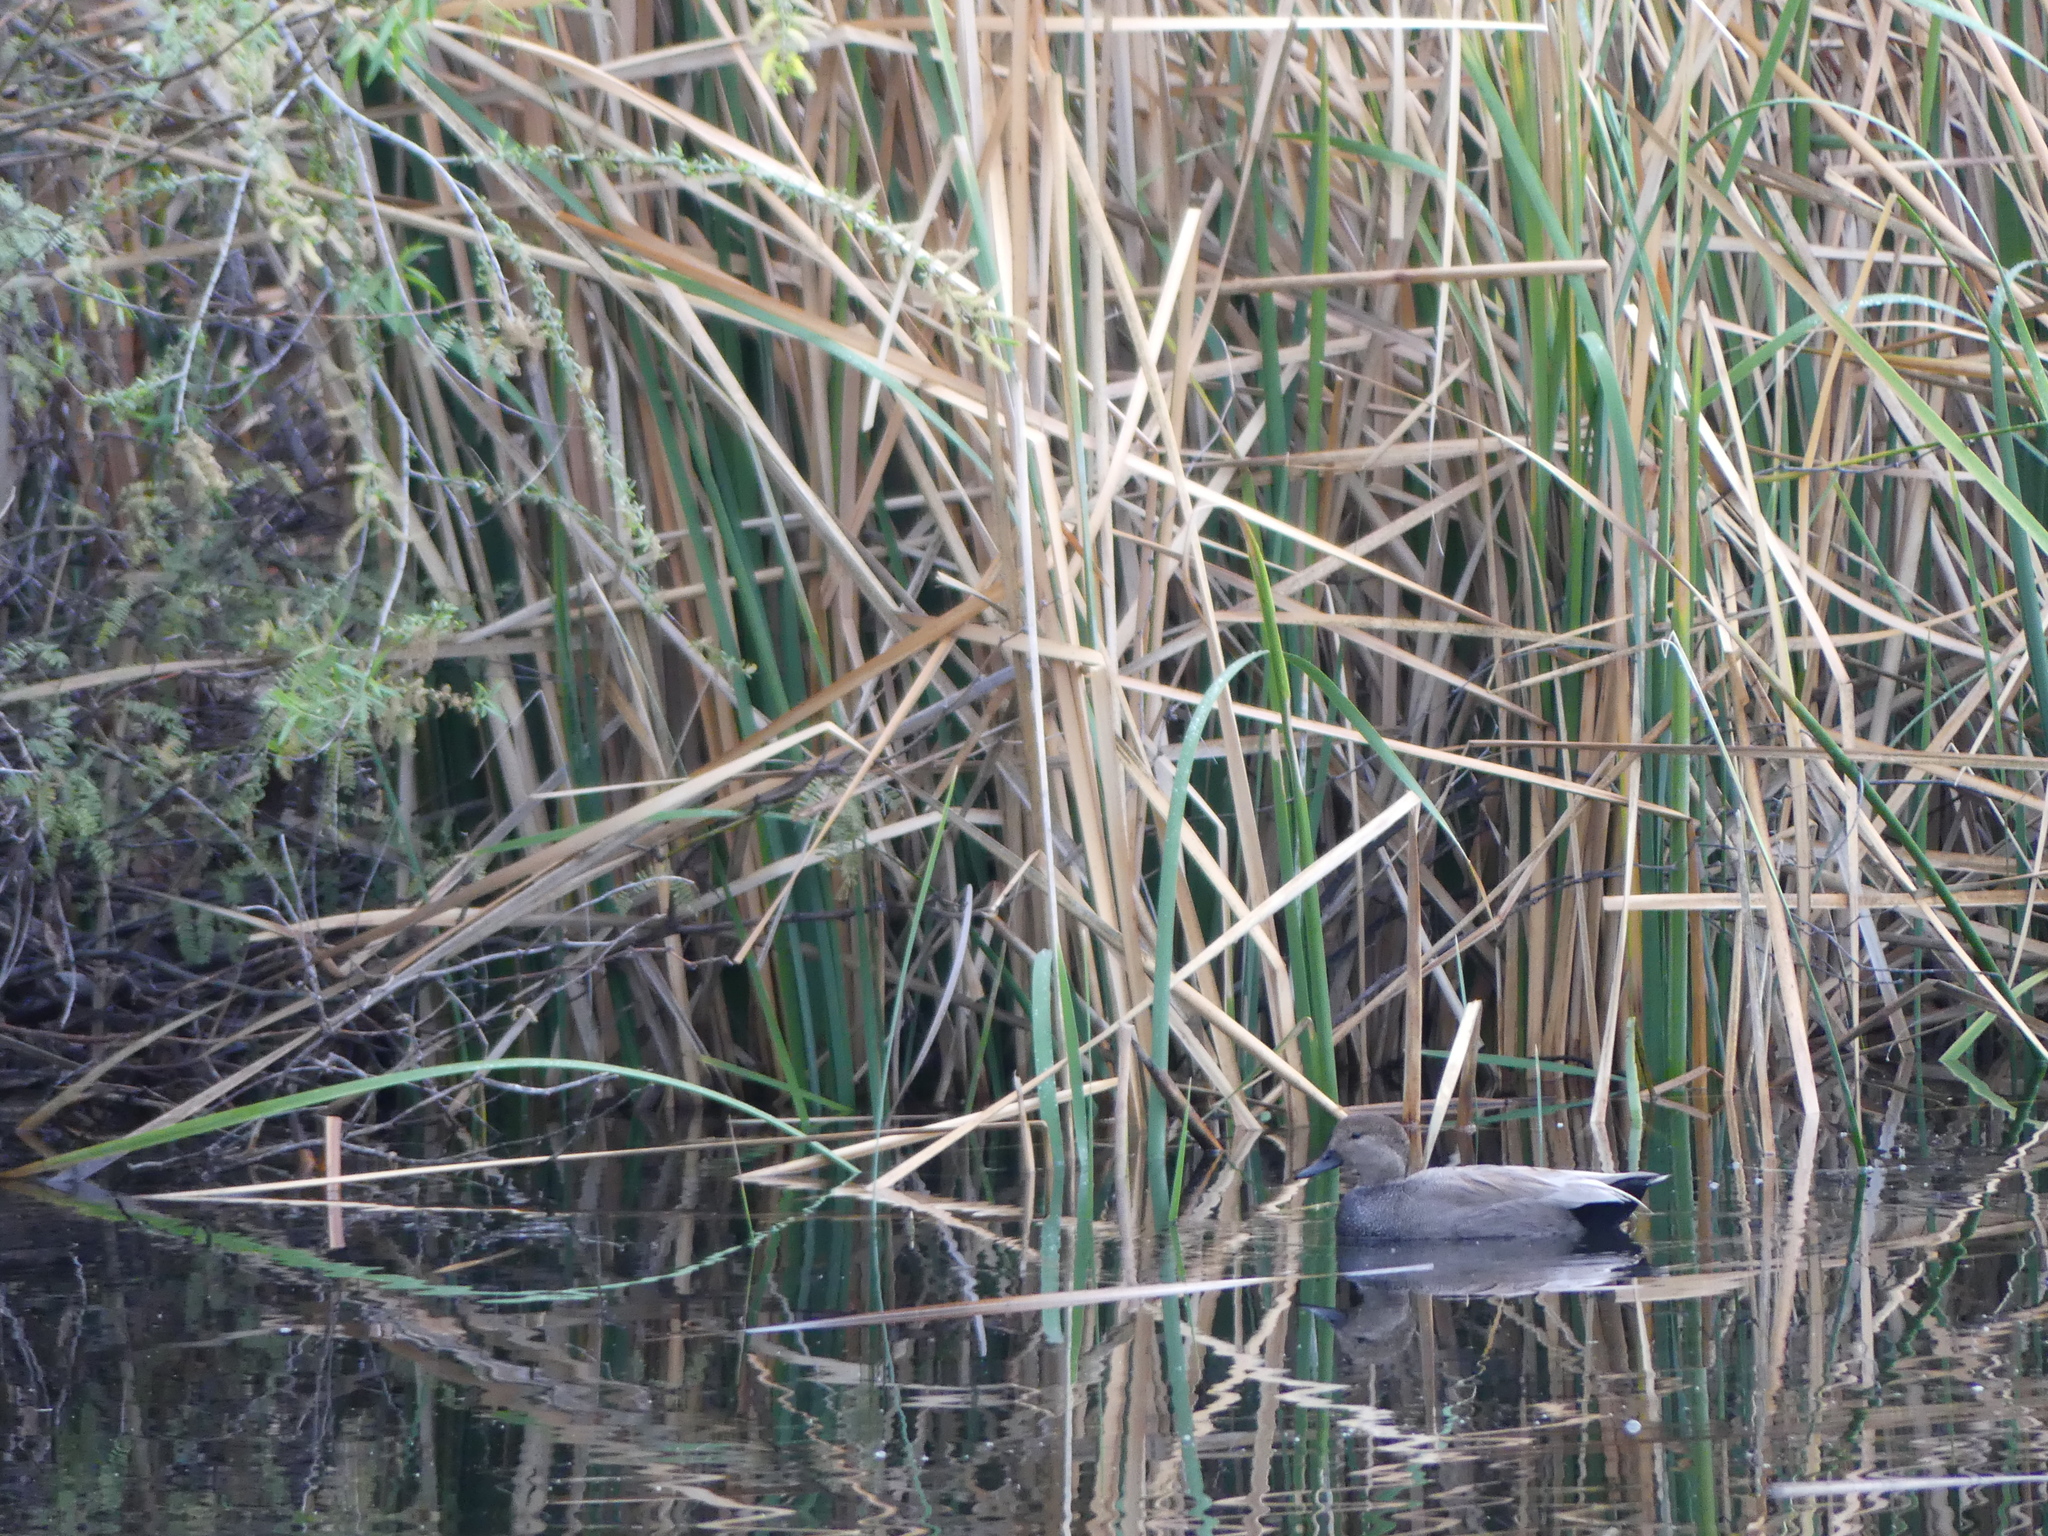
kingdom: Animalia
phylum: Chordata
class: Aves
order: Anseriformes
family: Anatidae
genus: Mareca
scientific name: Mareca strepera
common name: Gadwall
